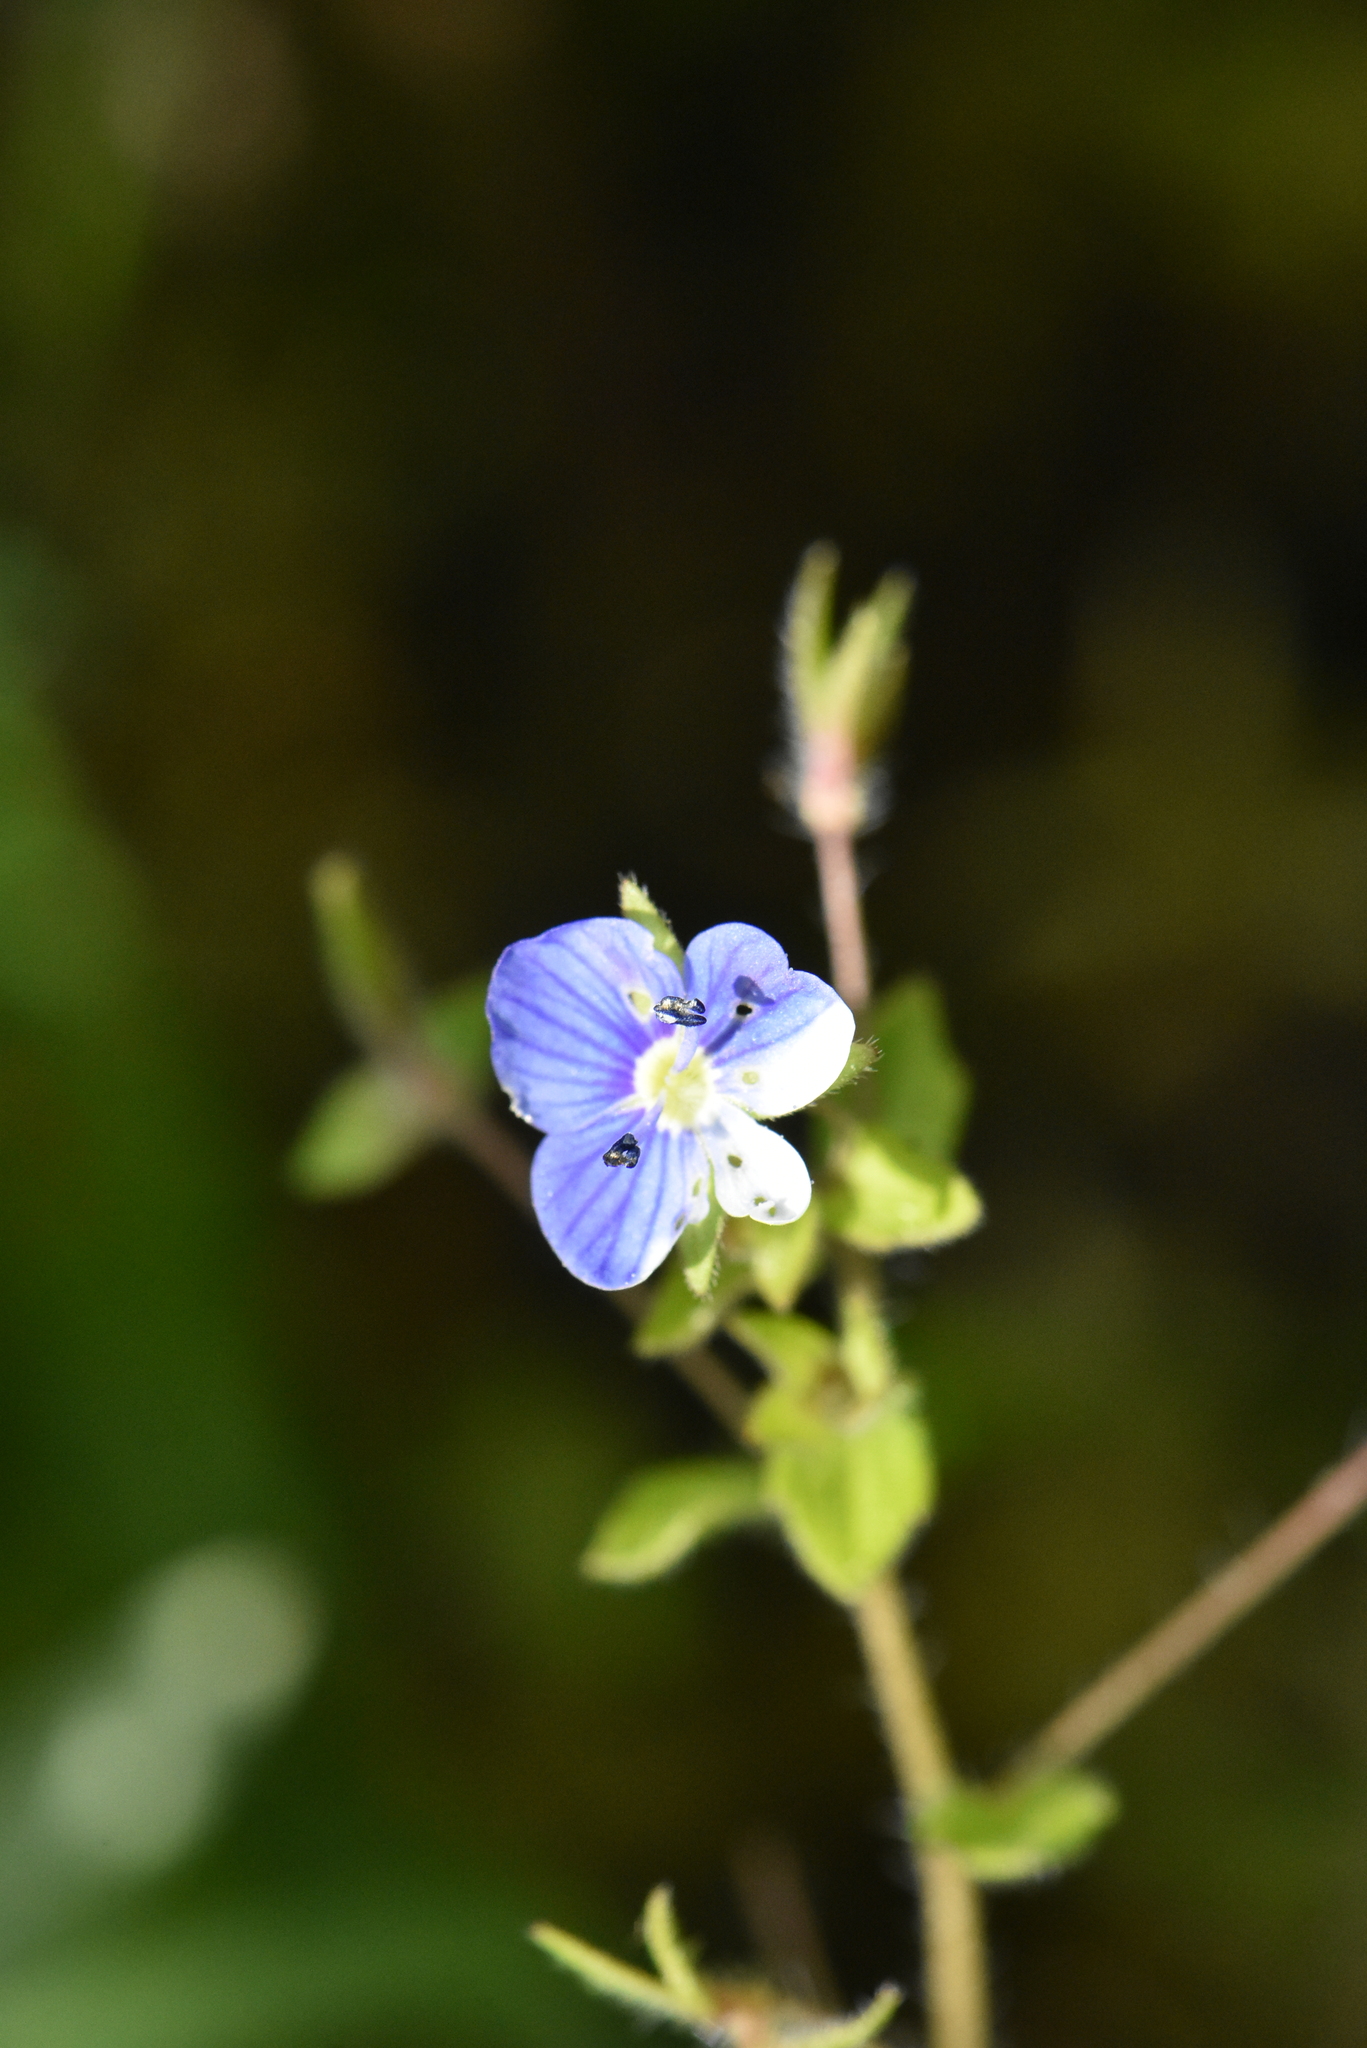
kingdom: Plantae
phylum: Tracheophyta
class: Magnoliopsida
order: Lamiales
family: Plantaginaceae
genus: Veronica
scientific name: Veronica persica
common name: Common field-speedwell
